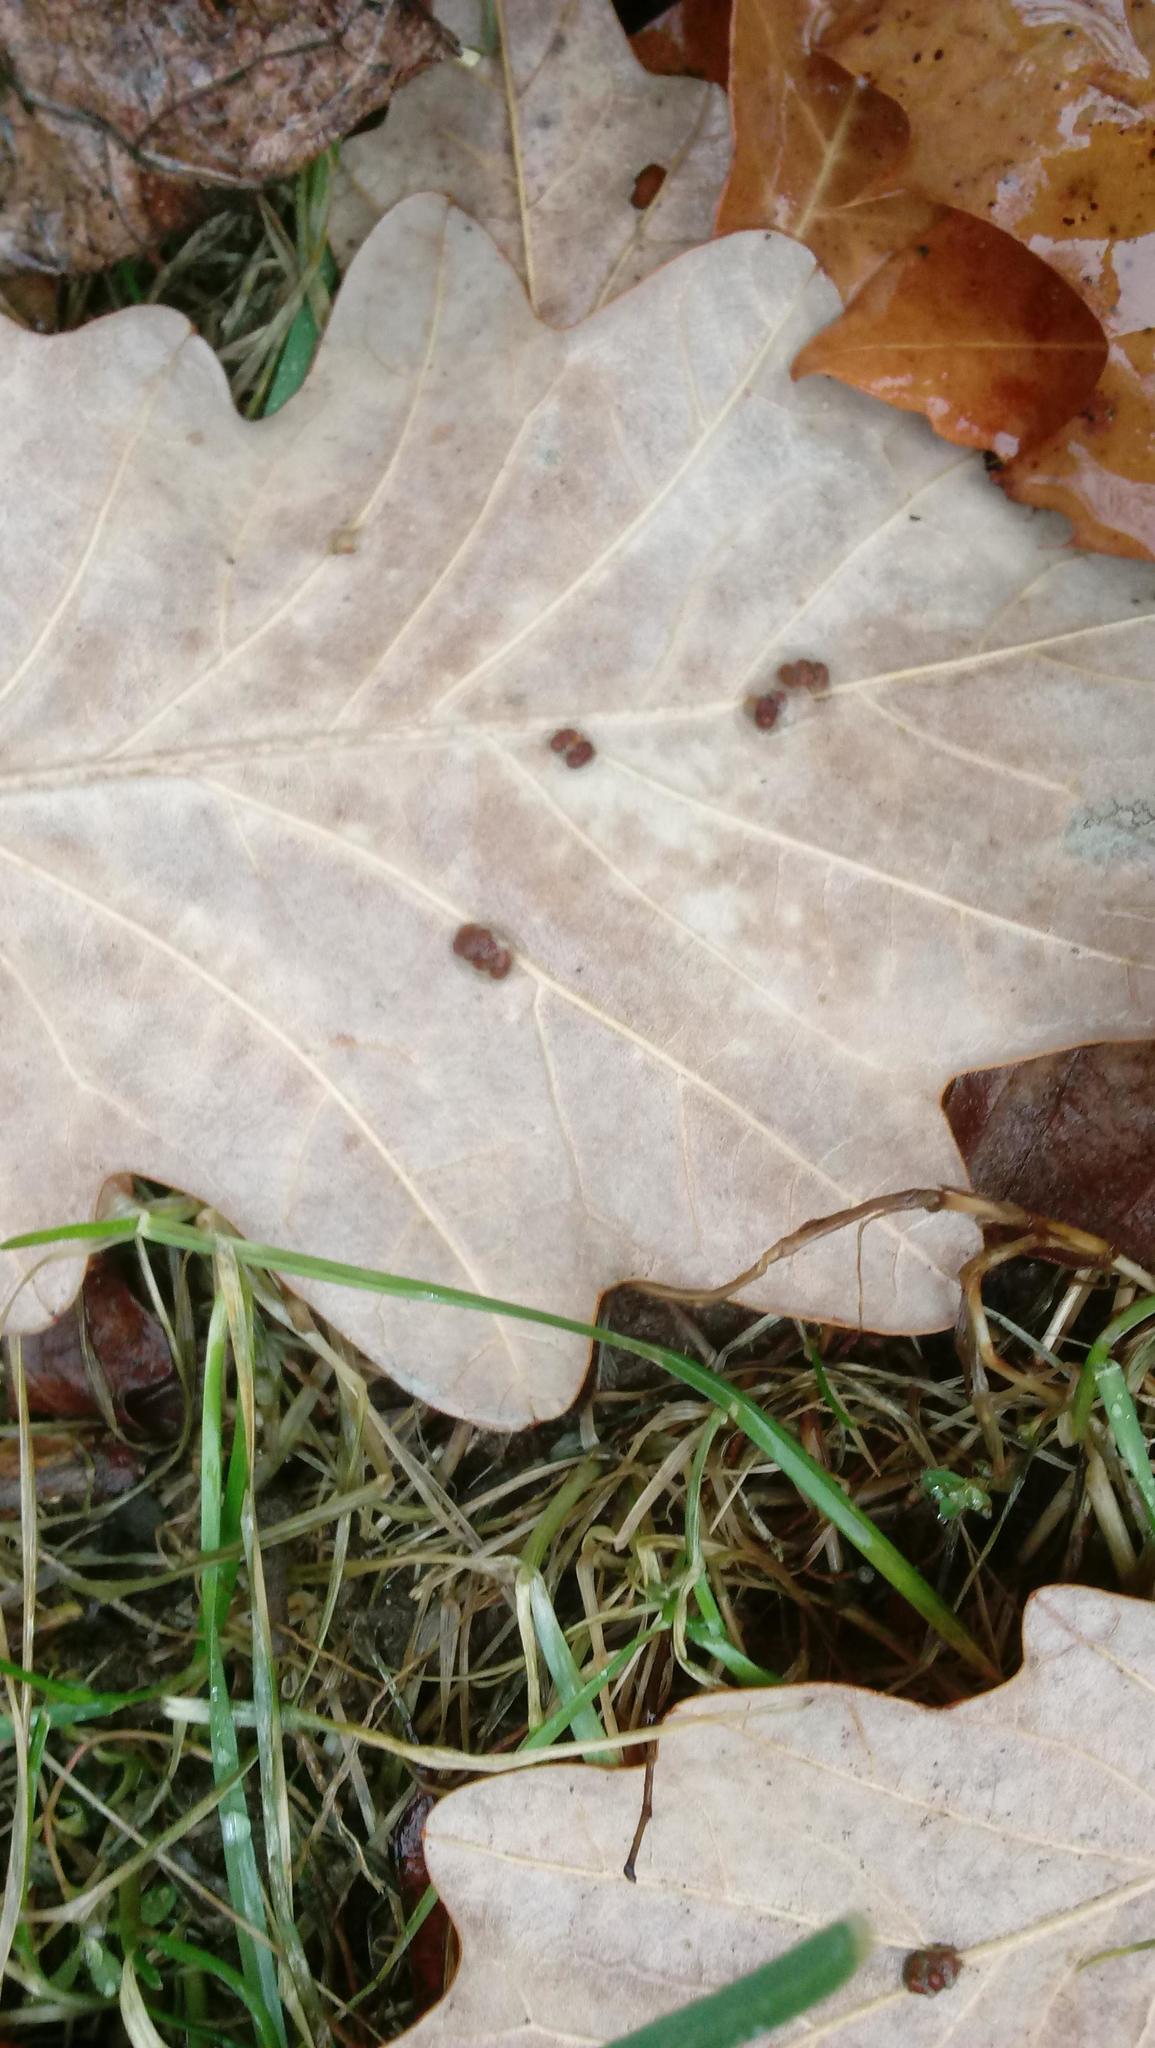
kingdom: Animalia
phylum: Arthropoda
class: Insecta
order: Hymenoptera
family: Cynipidae
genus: Andricus
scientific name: Andricus Druon ignotum
